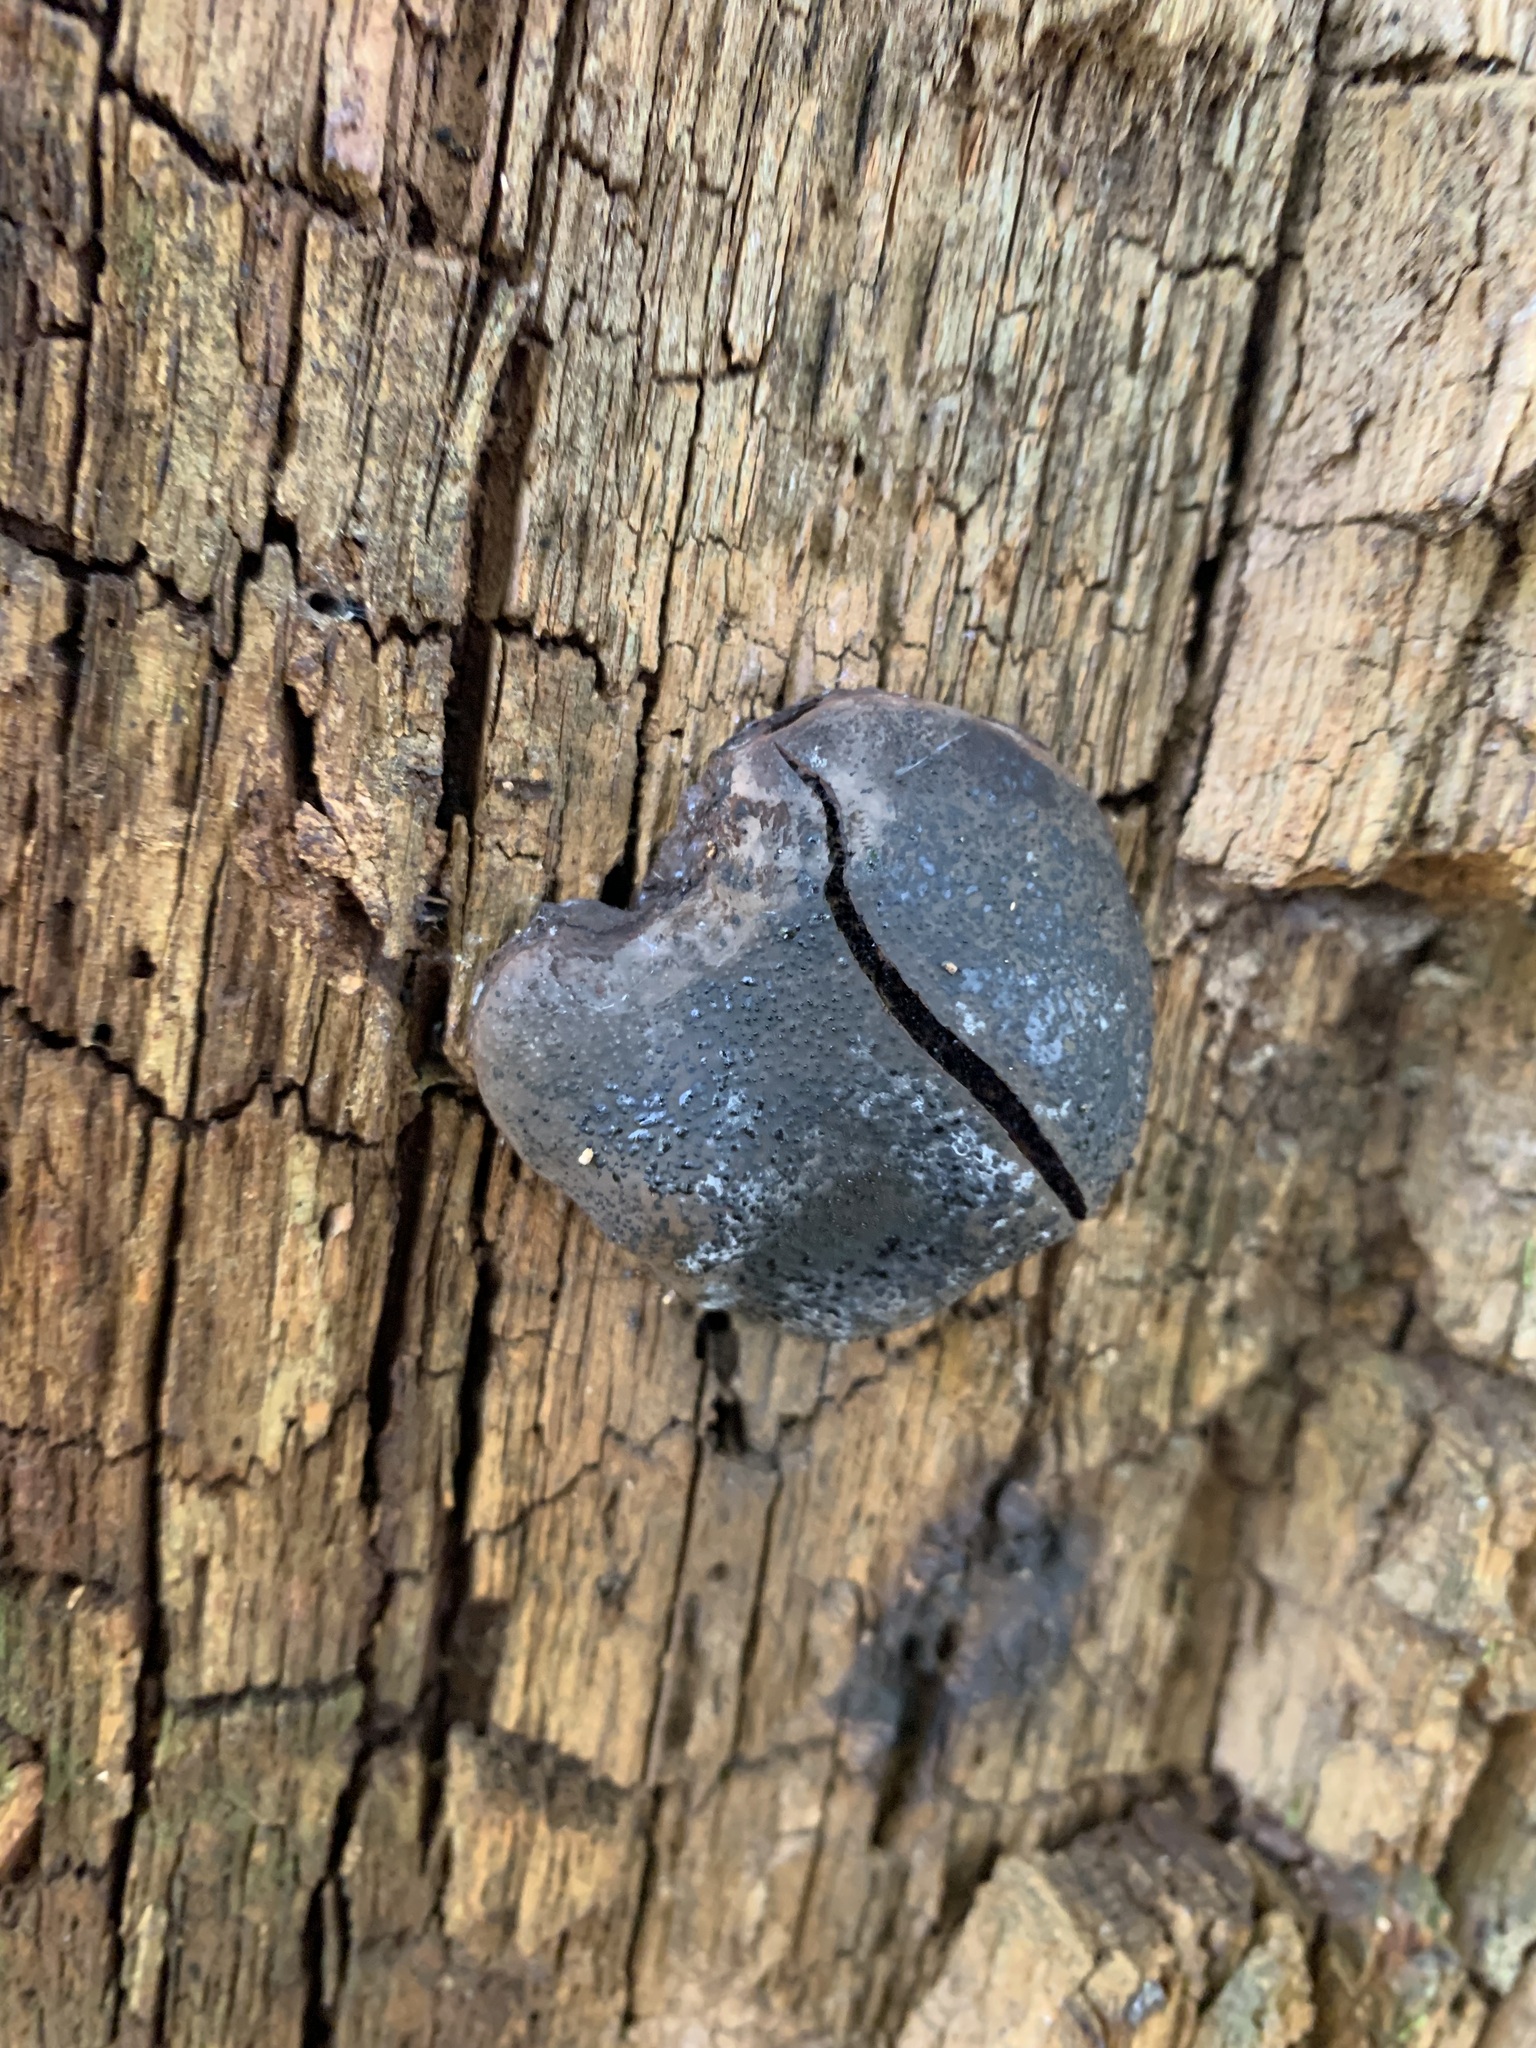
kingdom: Fungi
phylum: Ascomycota
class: Sordariomycetes
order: Boliniales
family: Boliniaceae
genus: Camarops
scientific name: Camarops petersii
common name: Dog's nose fungus
